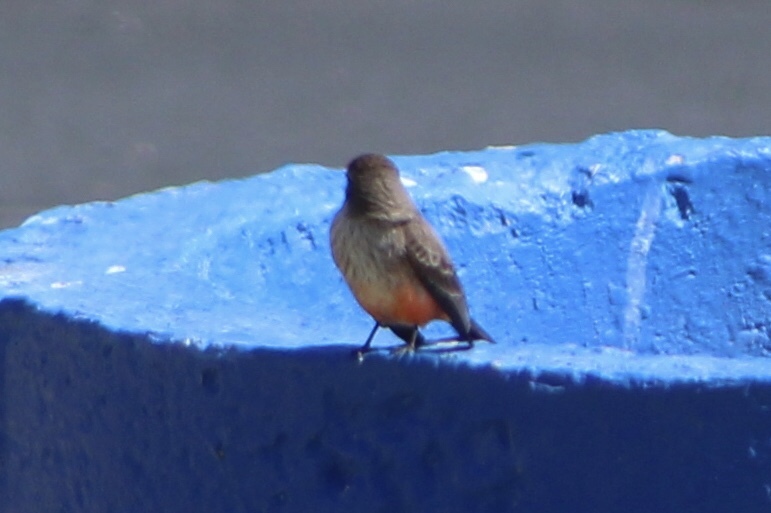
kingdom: Animalia
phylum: Chordata
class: Aves
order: Passeriformes
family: Tyrannidae
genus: Pyrocephalus
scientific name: Pyrocephalus rubinus
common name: Vermilion flycatcher
